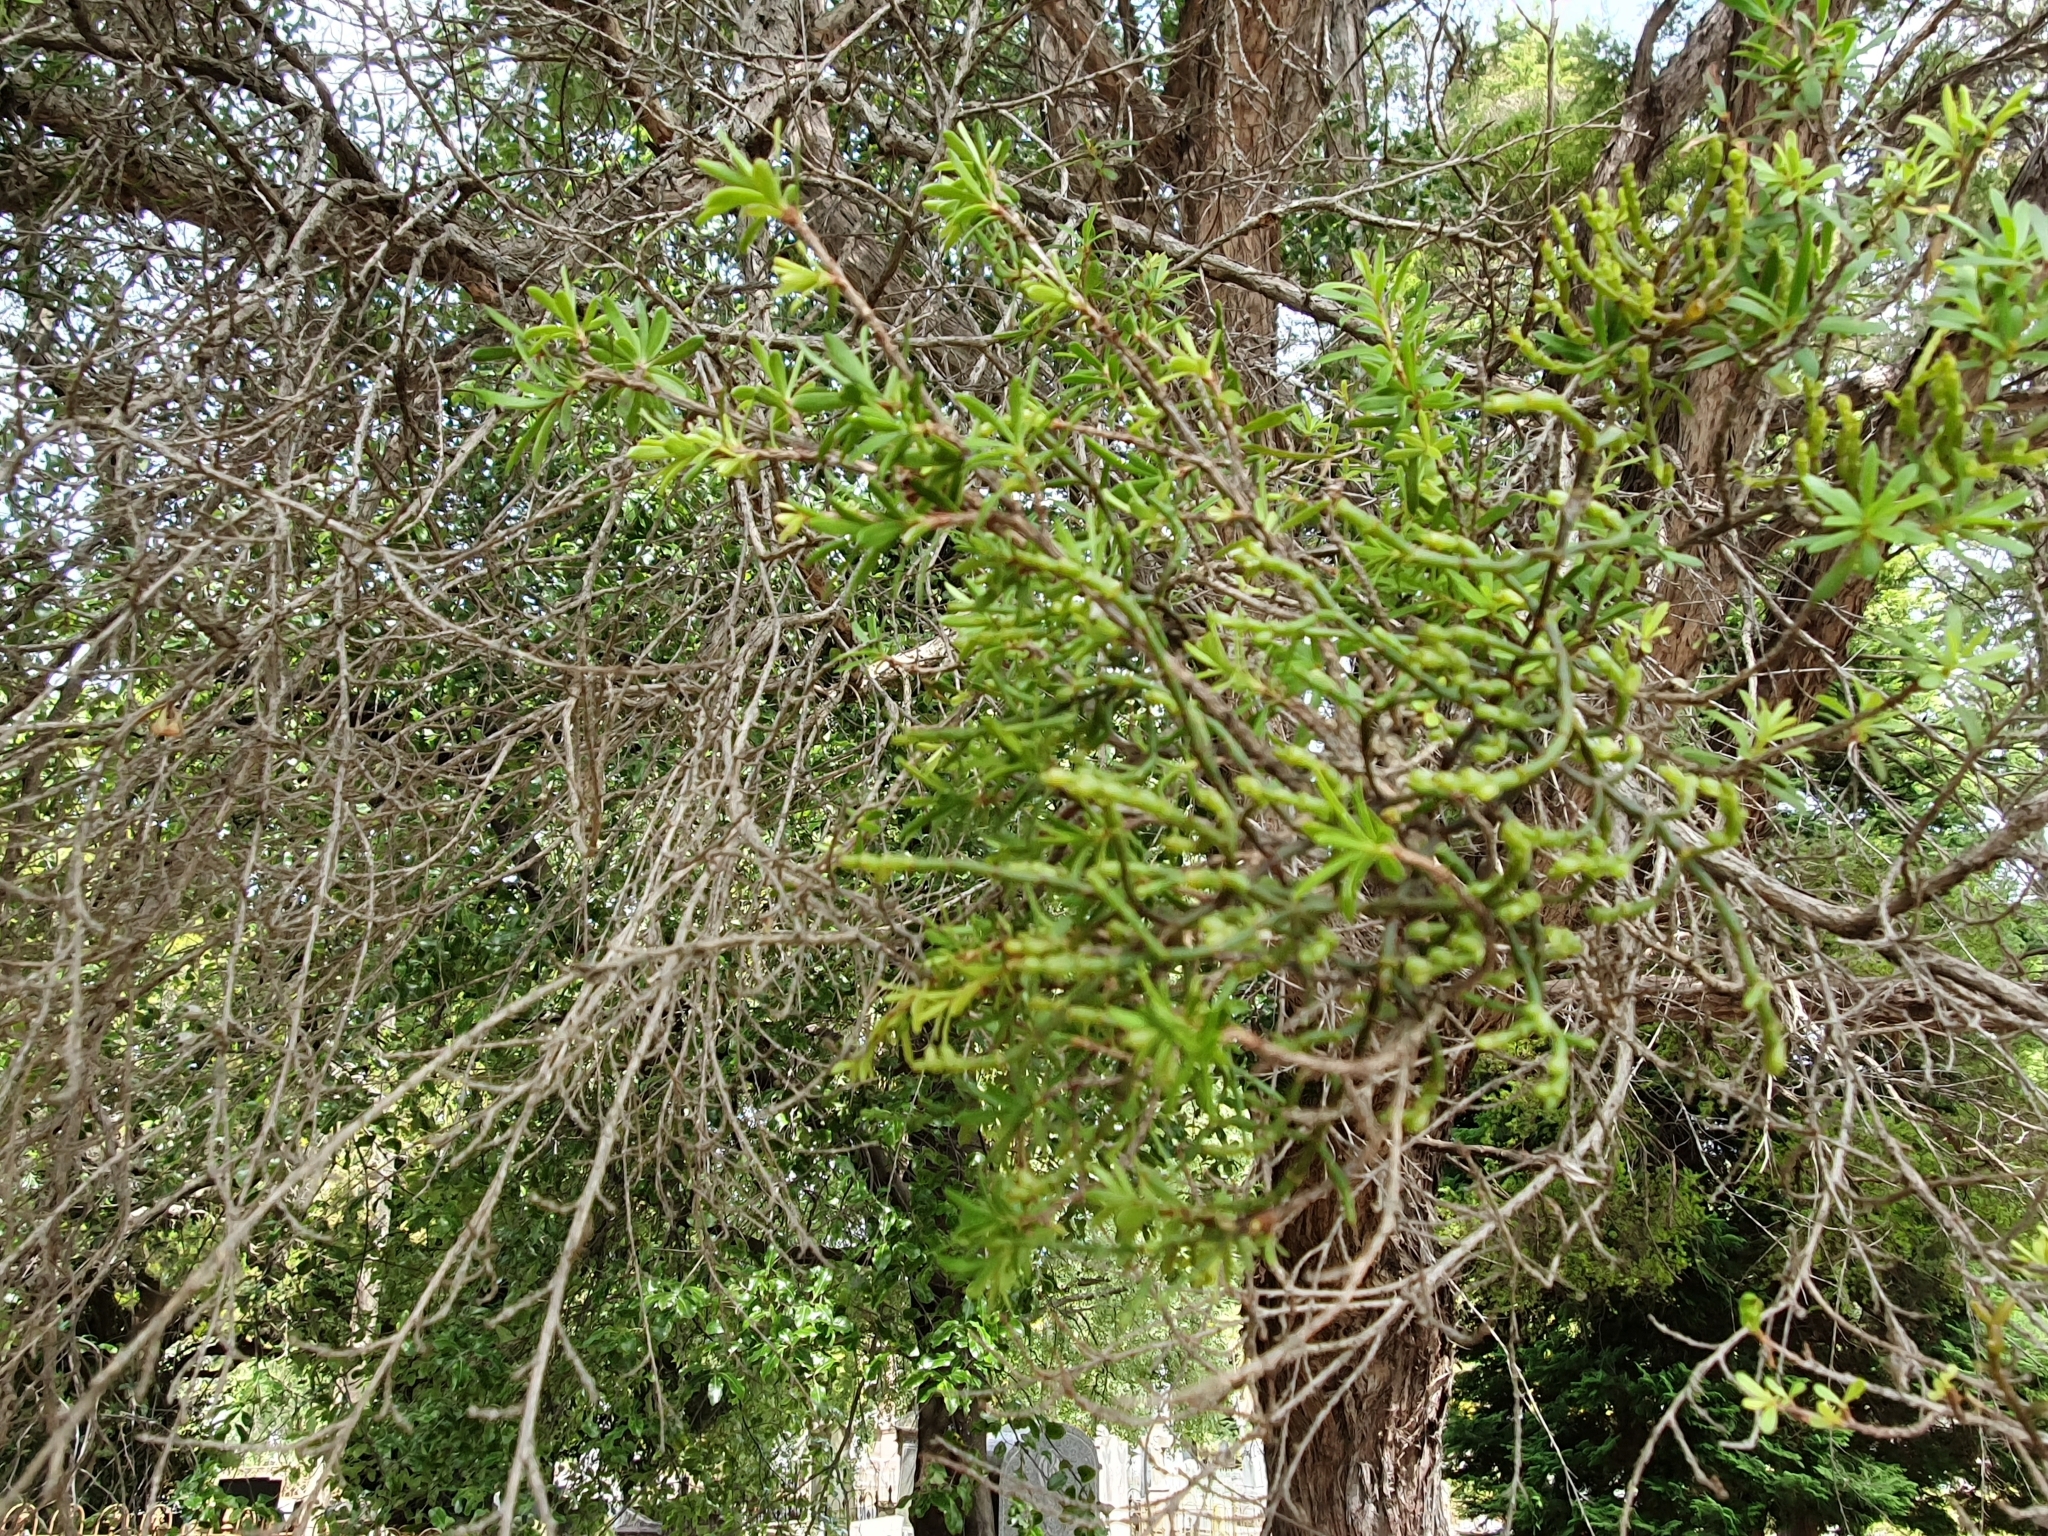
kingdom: Plantae
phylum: Tracheophyta
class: Magnoliopsida
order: Santalales
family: Viscaceae
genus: Korthalsella
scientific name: Korthalsella salicornioides
